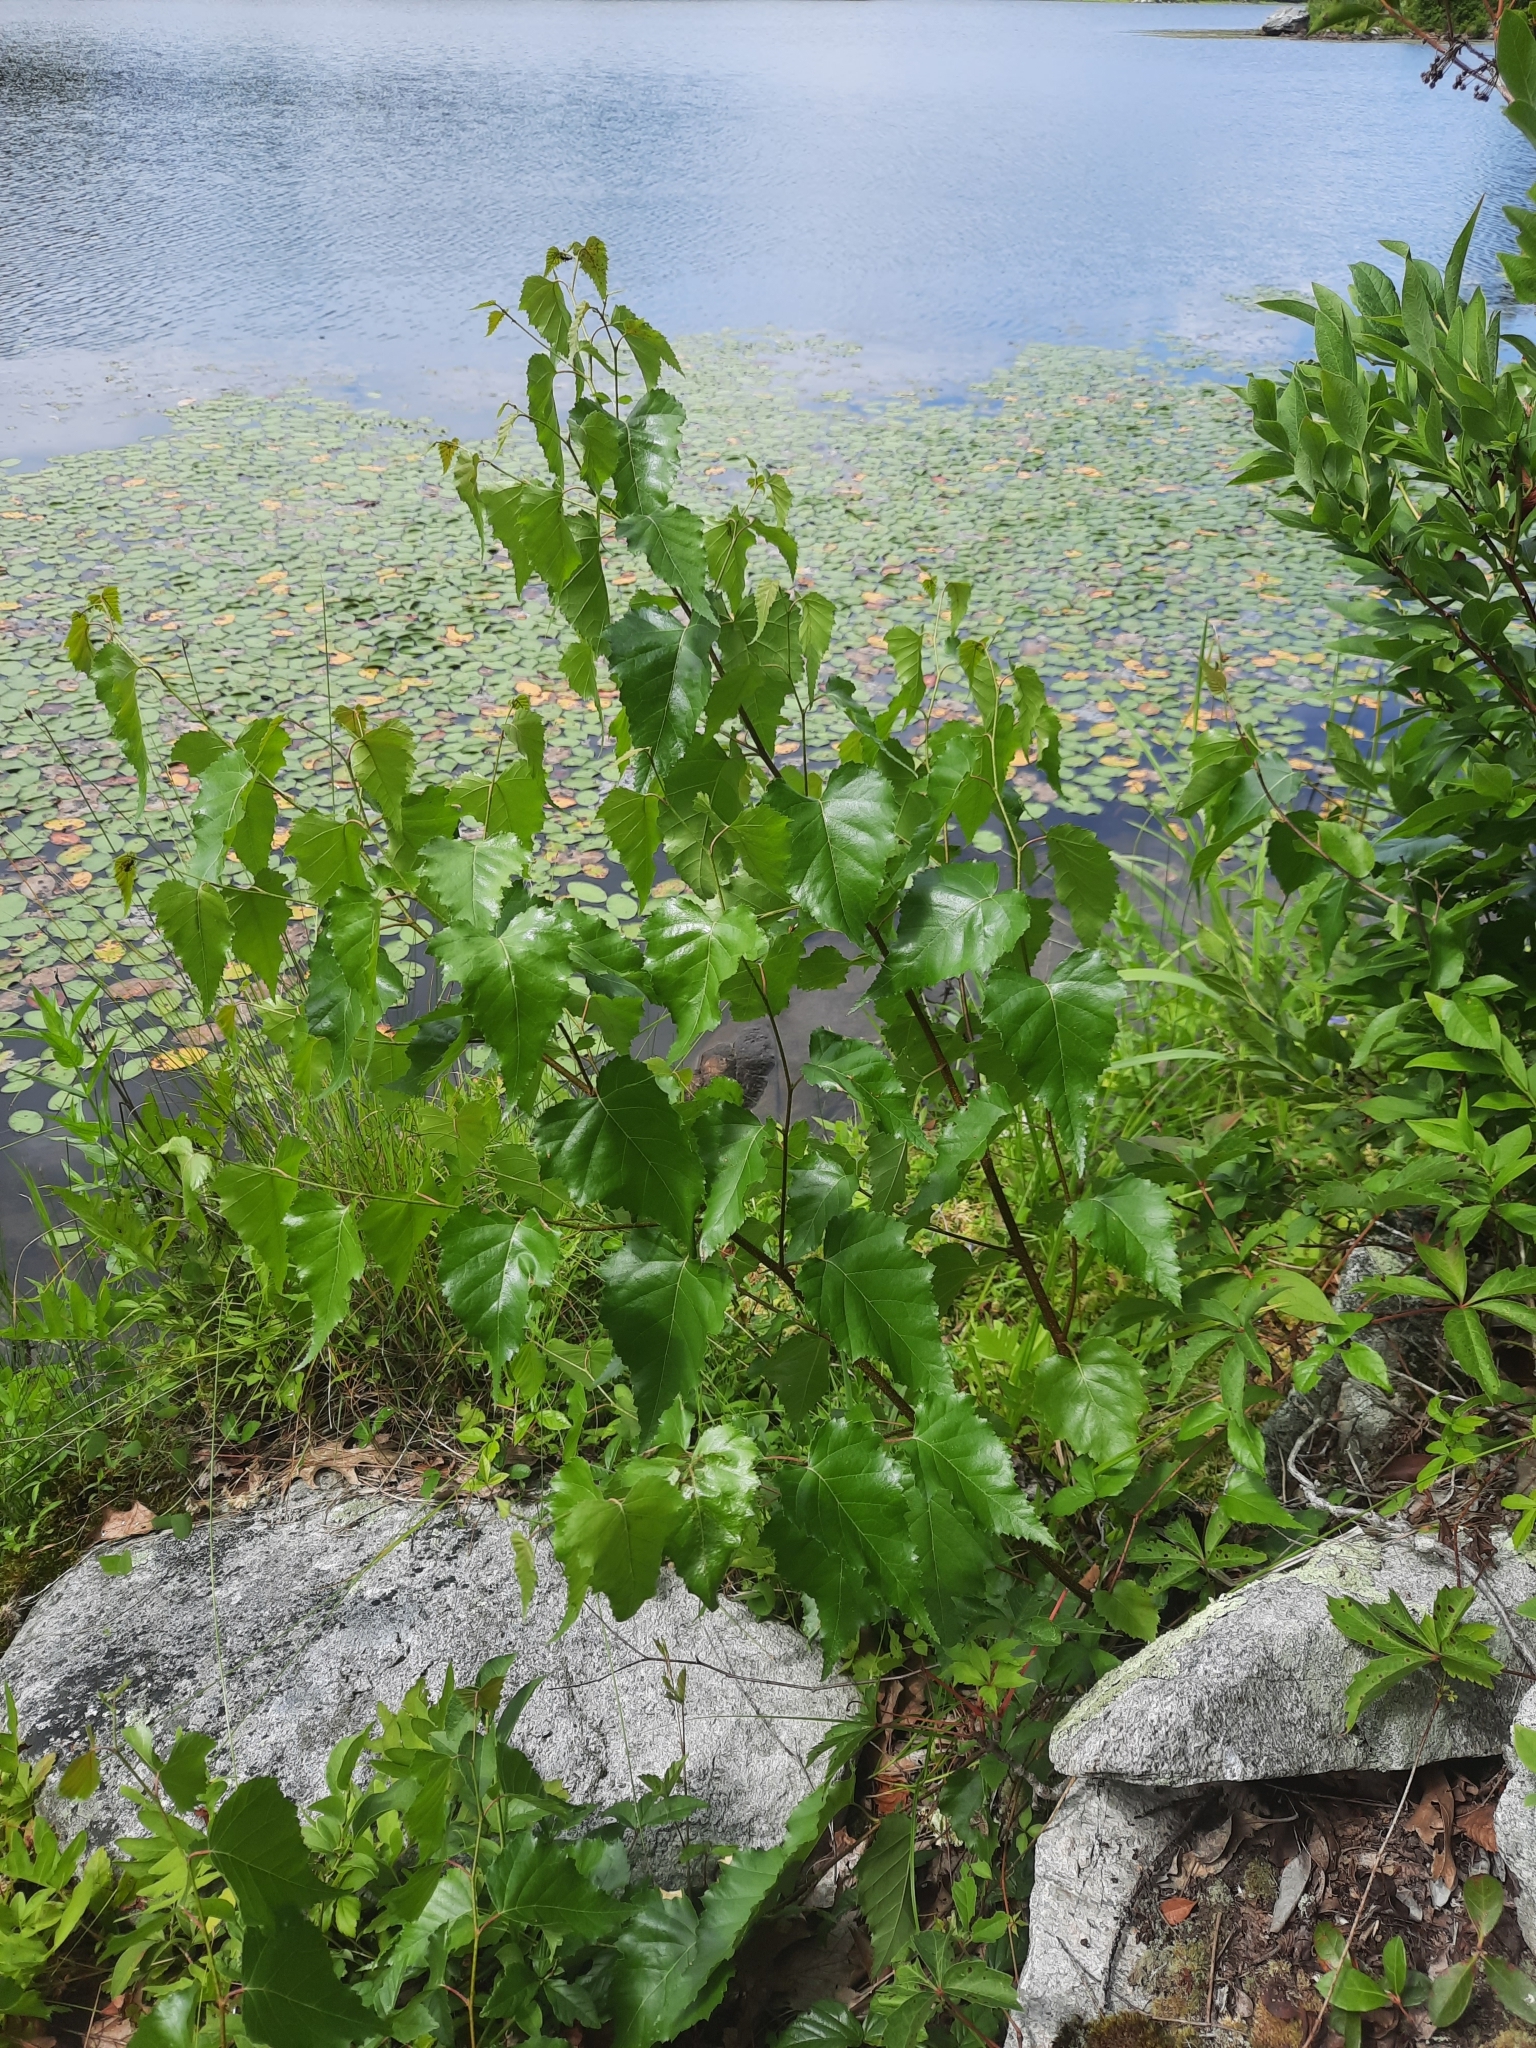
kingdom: Plantae
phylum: Tracheophyta
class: Magnoliopsida
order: Fagales
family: Betulaceae
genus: Betula
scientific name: Betula populifolia
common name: Fire birch
